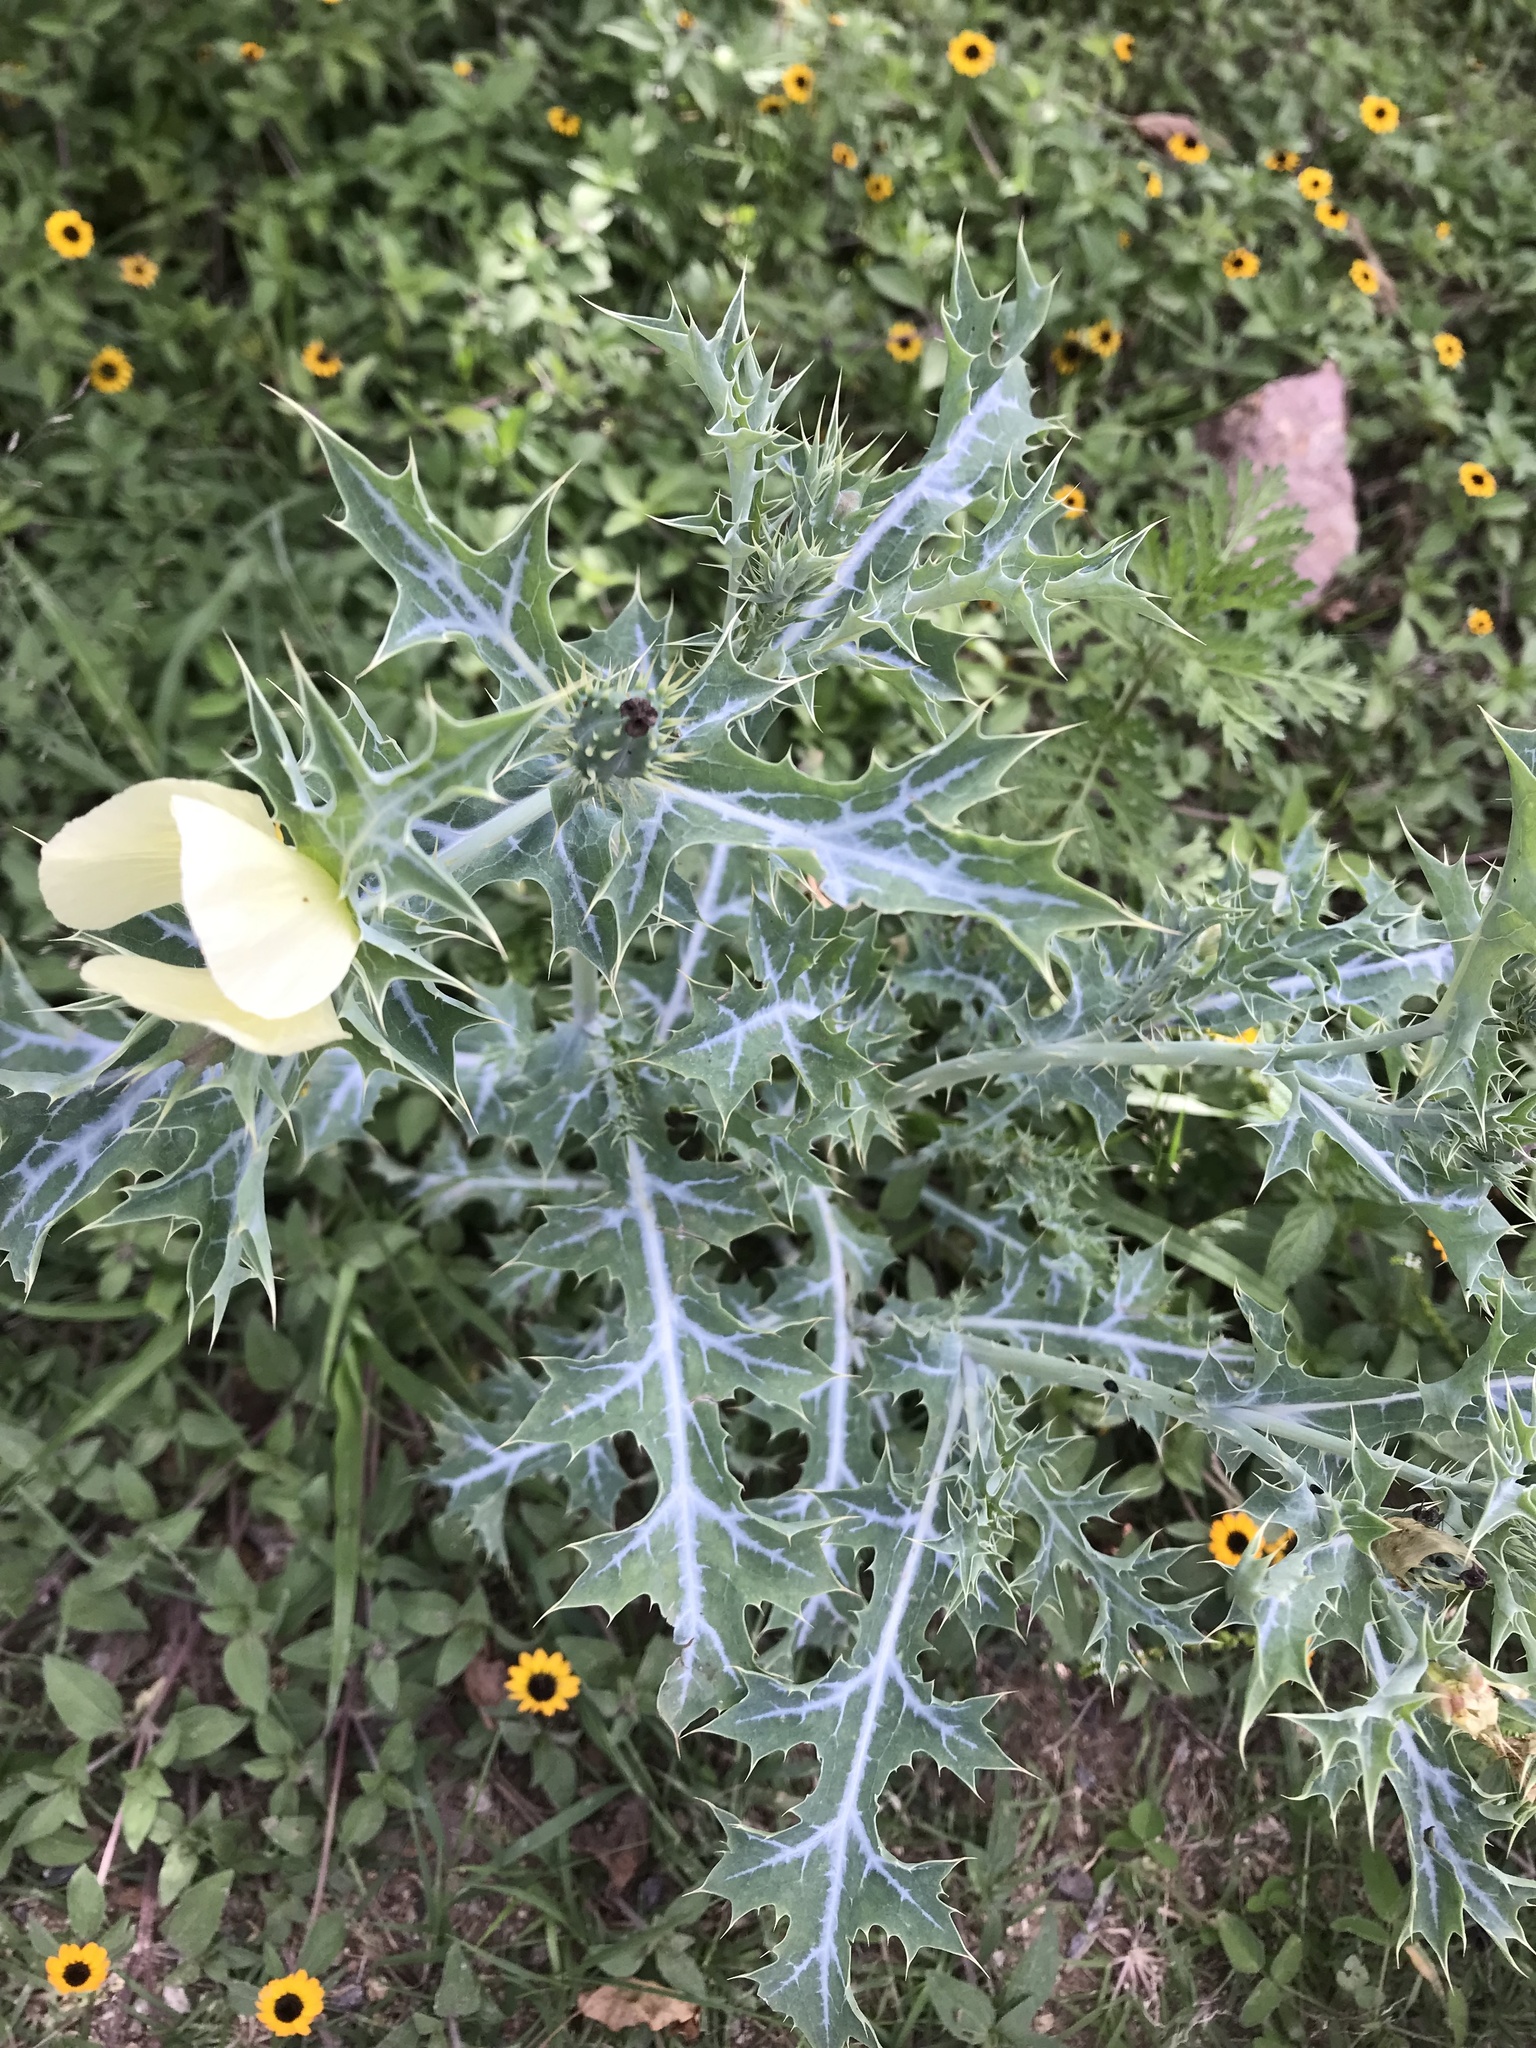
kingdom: Plantae
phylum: Tracheophyta
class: Magnoliopsida
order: Ranunculales
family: Papaveraceae
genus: Argemone
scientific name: Argemone ochroleuca
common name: White-flower mexican-poppy
